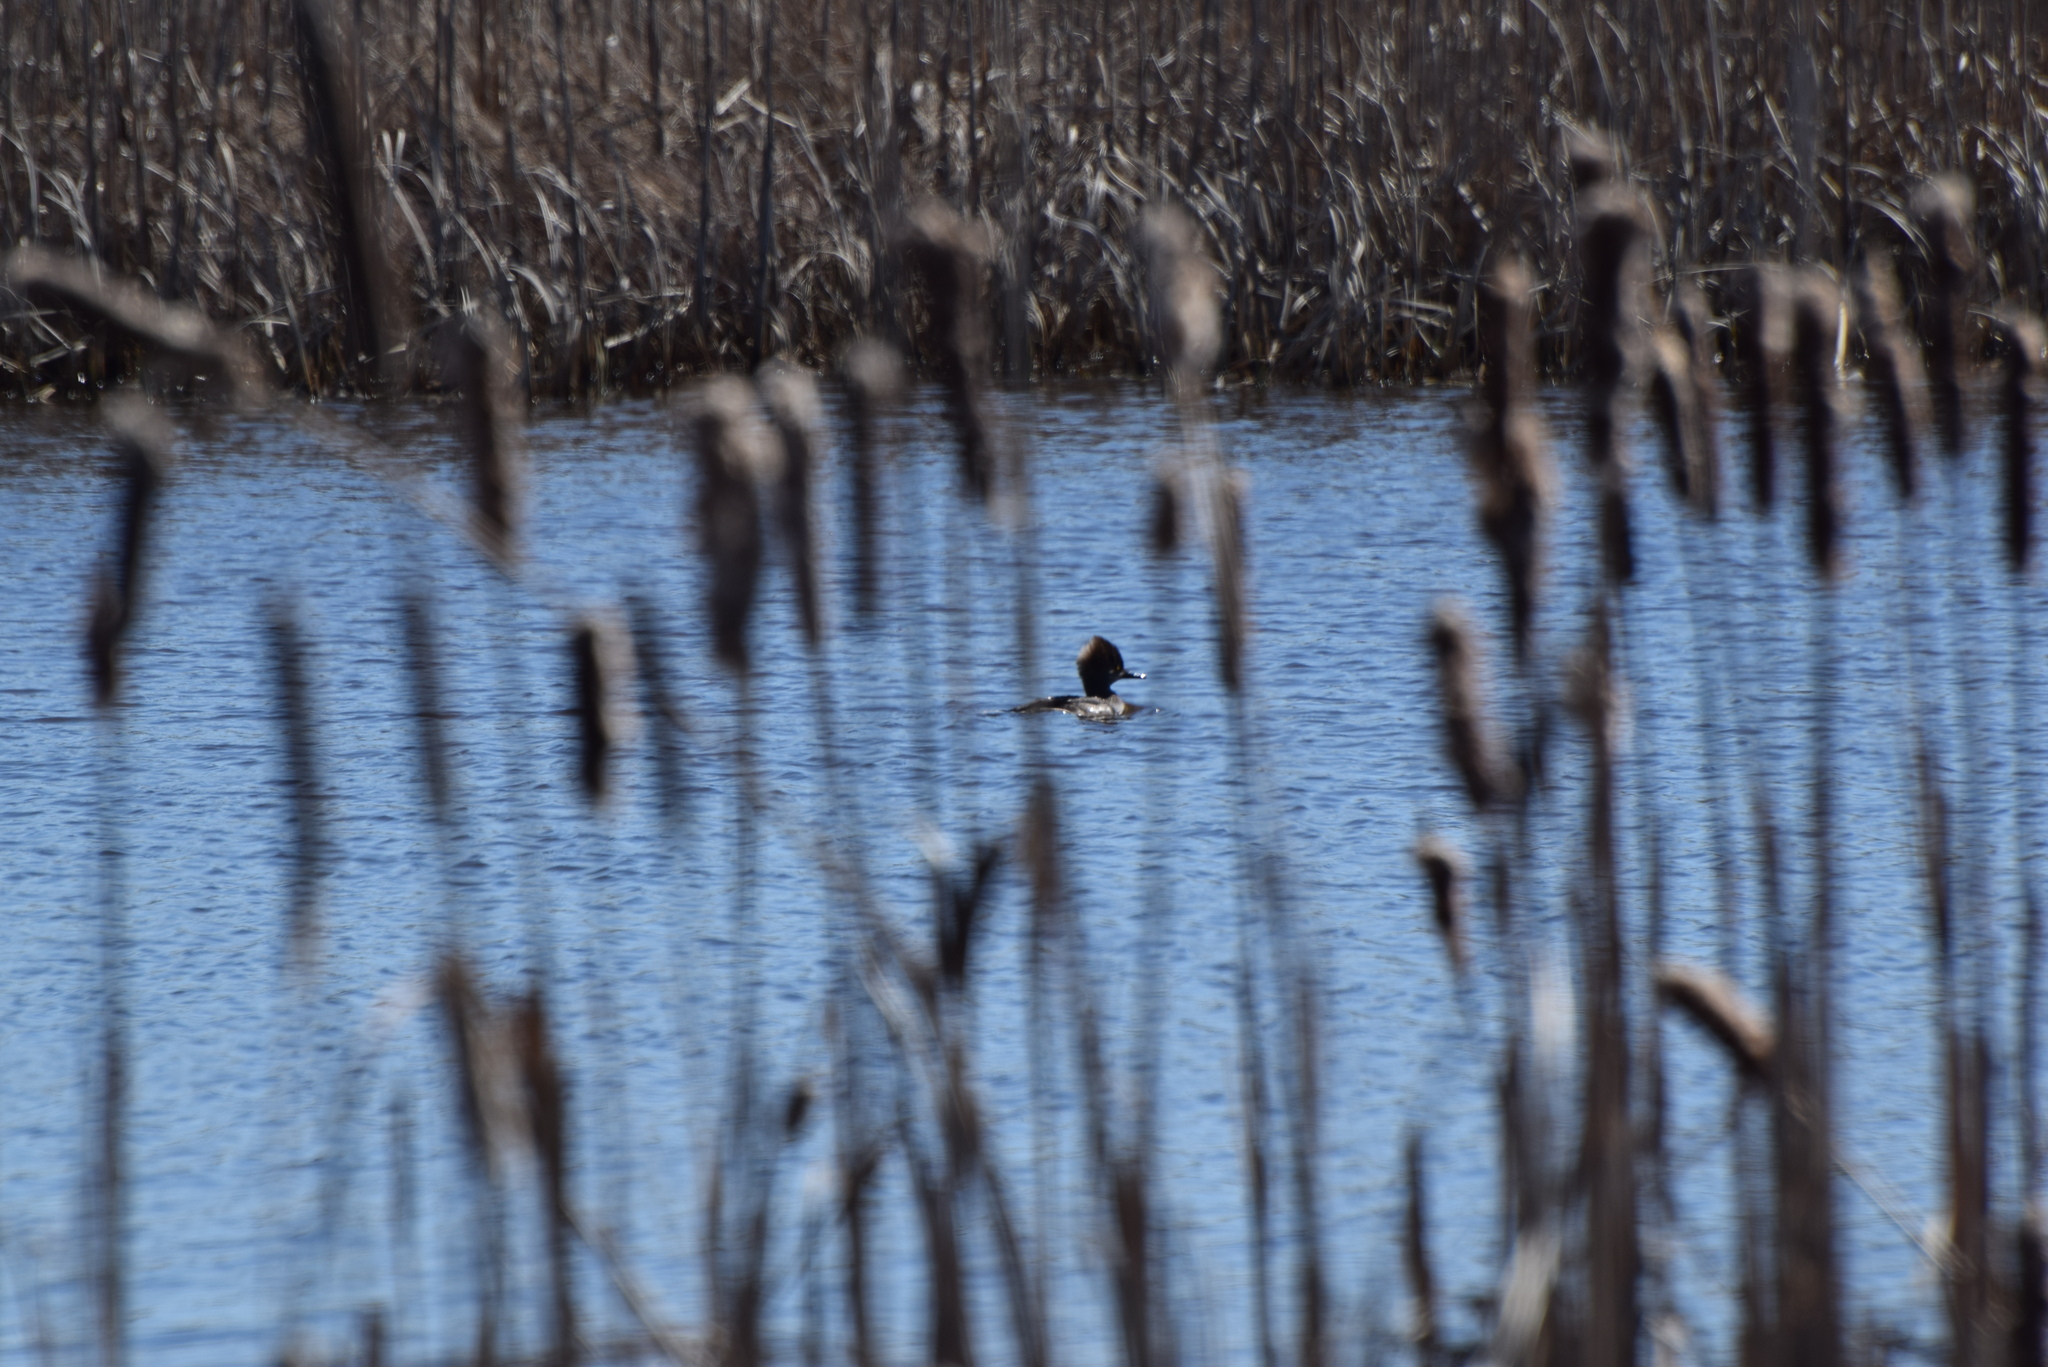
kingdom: Animalia
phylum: Chordata
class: Aves
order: Anseriformes
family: Anatidae
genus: Lophodytes
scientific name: Lophodytes cucullatus
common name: Hooded merganser
